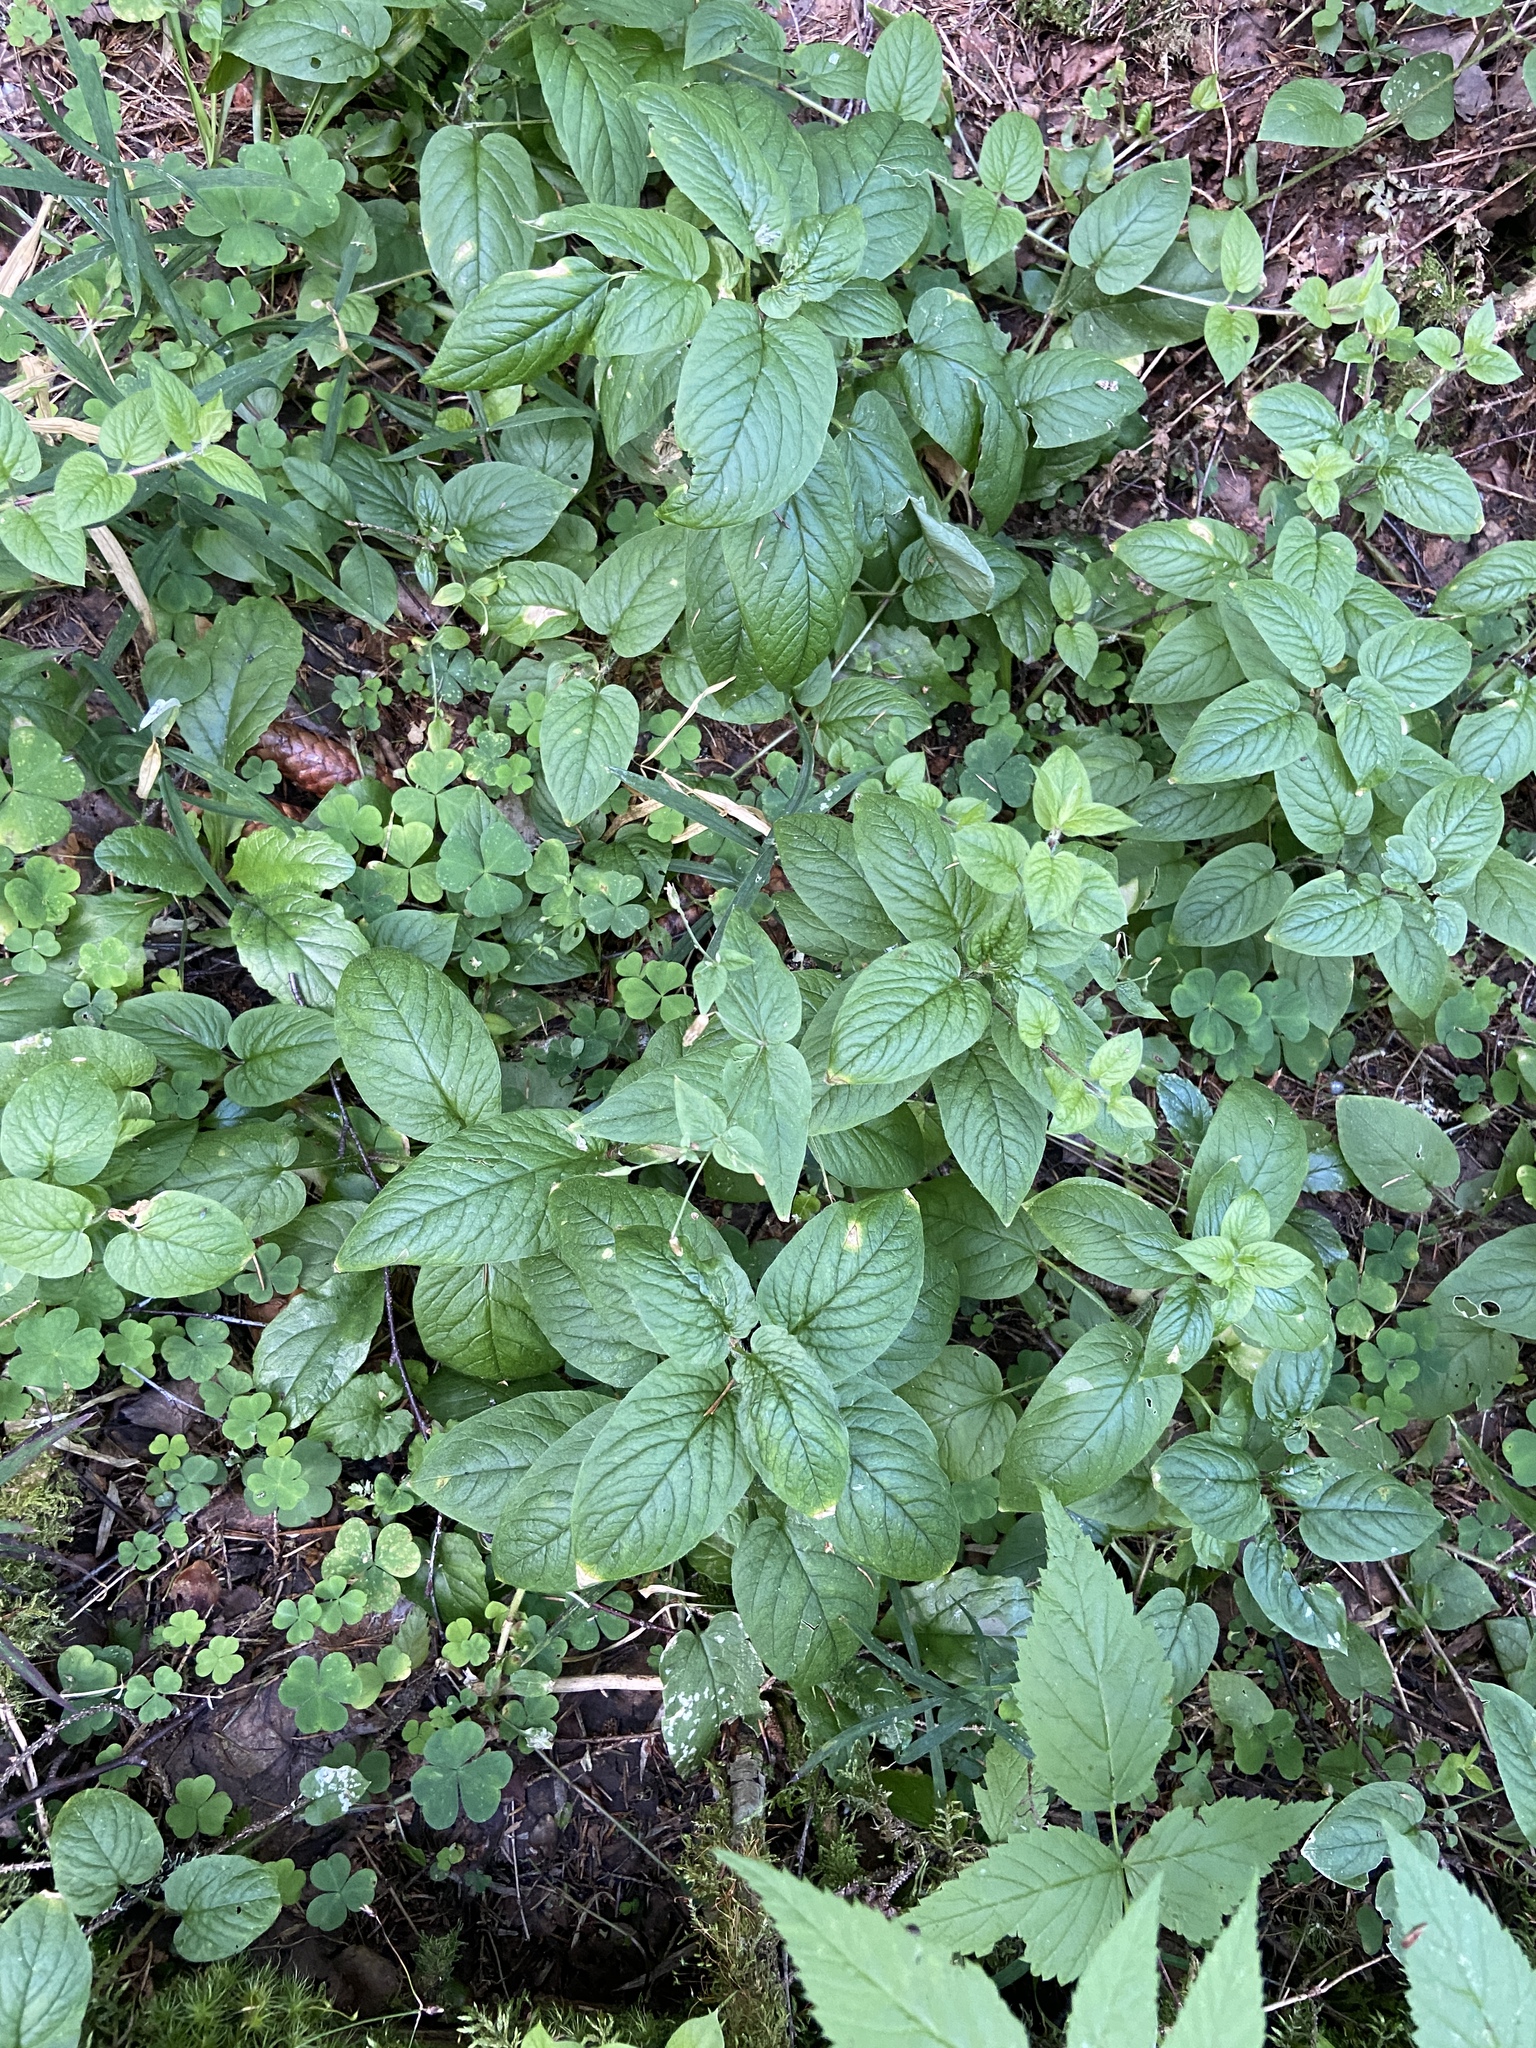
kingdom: Plantae
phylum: Tracheophyta
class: Magnoliopsida
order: Caryophyllales
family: Caryophyllaceae
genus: Stellaria
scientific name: Stellaria nemorum
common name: Wood stitchwort
